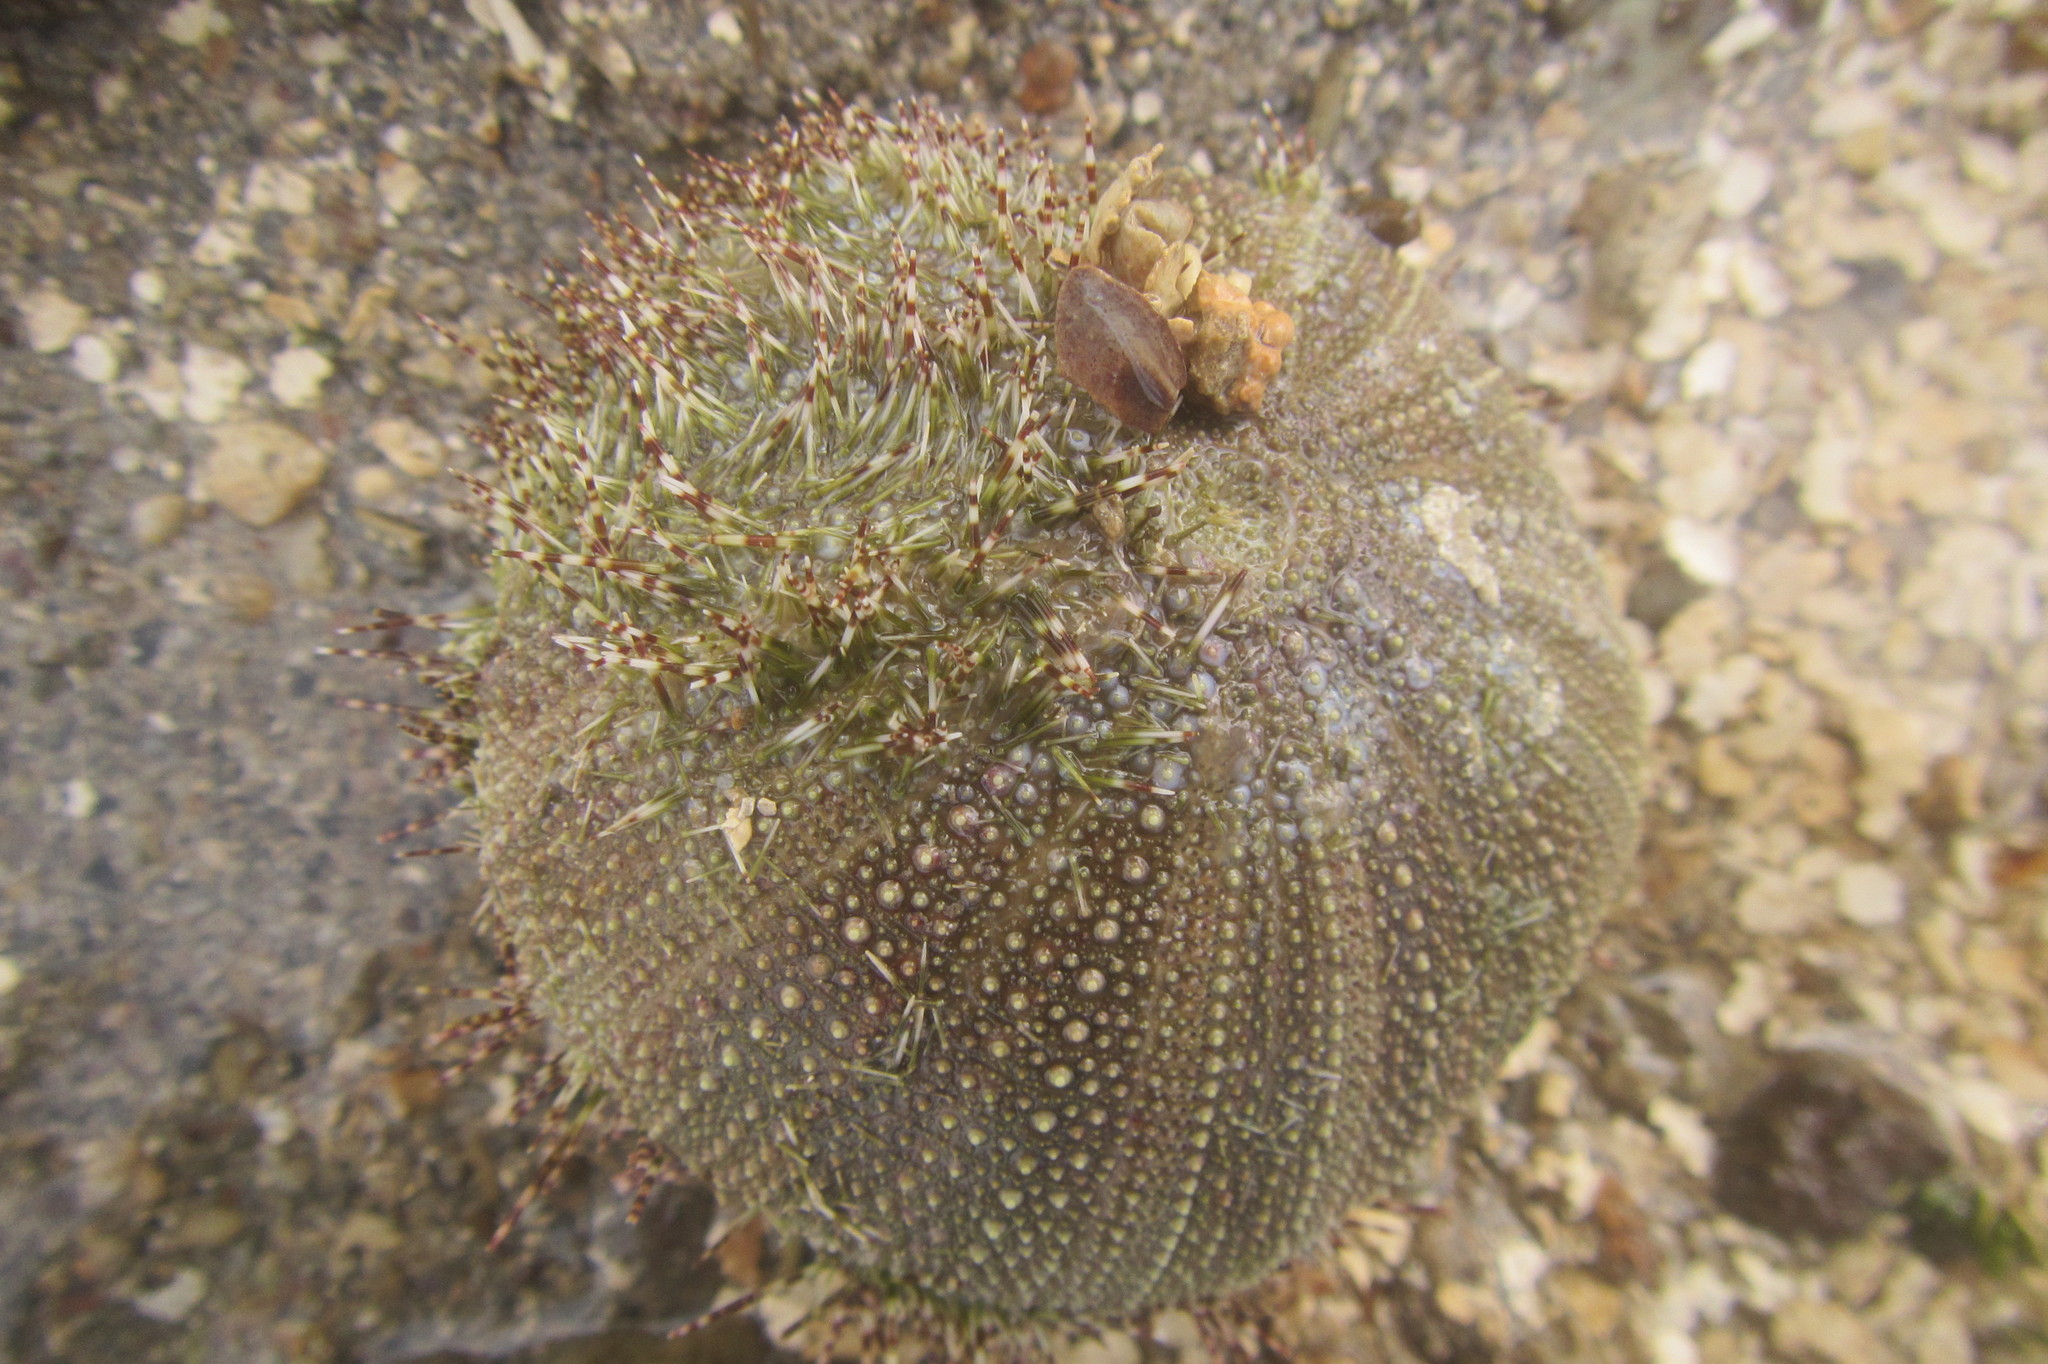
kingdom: Animalia
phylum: Echinodermata
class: Echinoidea
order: Camarodonta
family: Temnopleuridae
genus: Salmacis
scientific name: Salmacis sphaeroides
